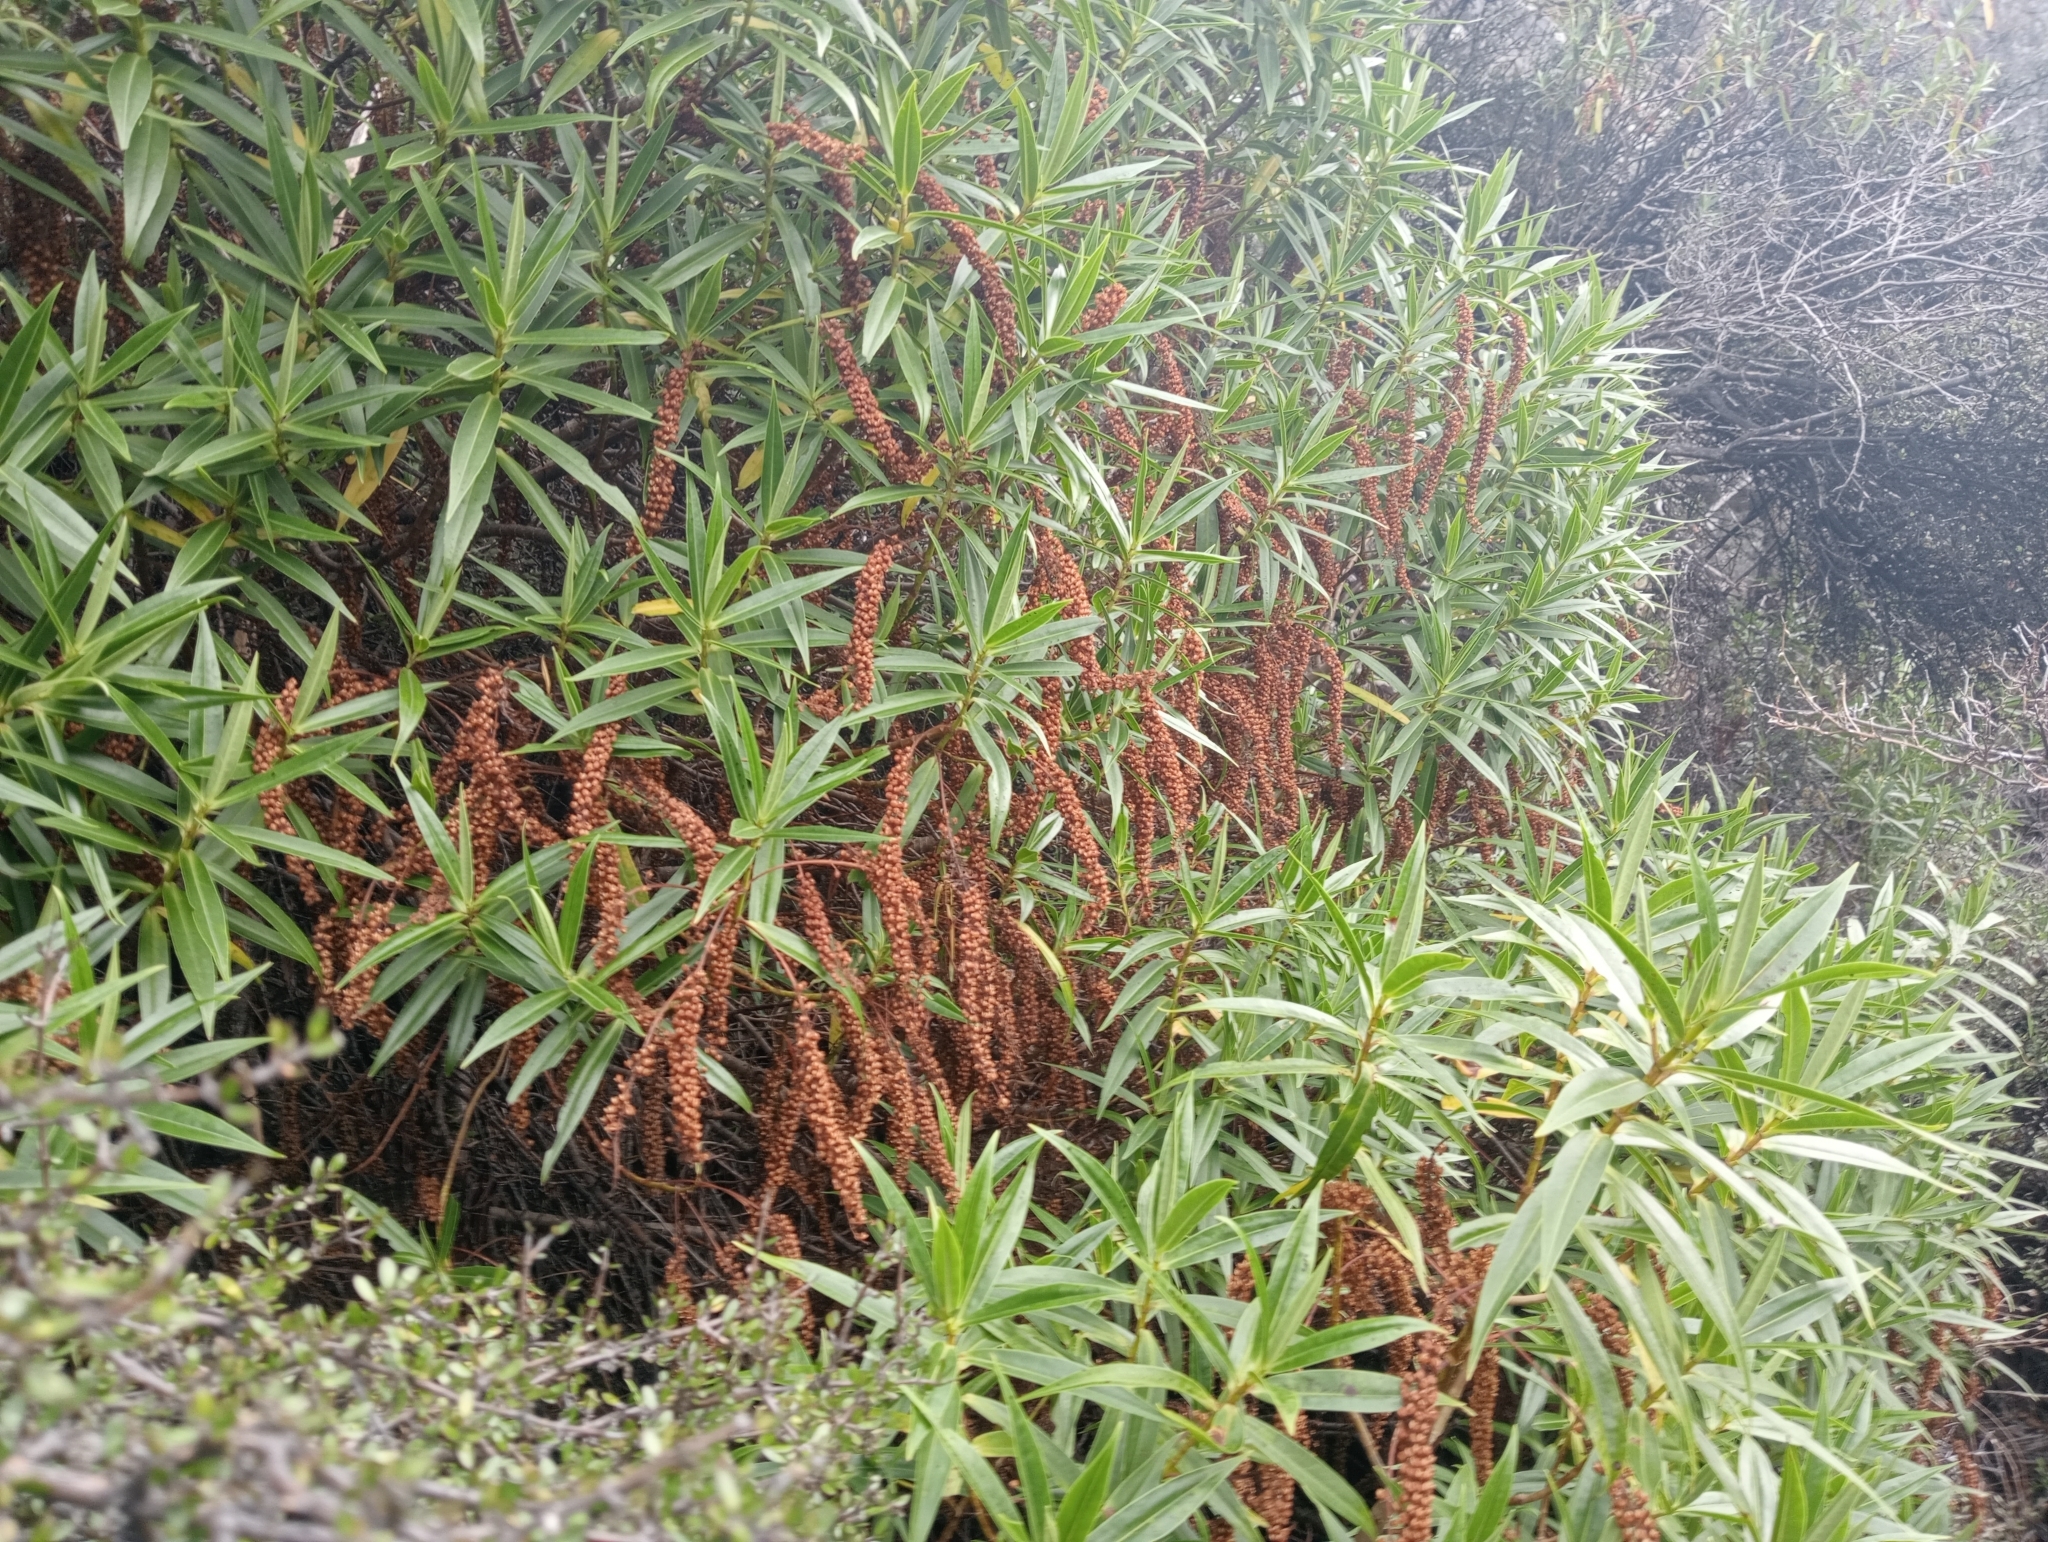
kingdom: Plantae
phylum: Tracheophyta
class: Magnoliopsida
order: Lamiales
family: Plantaginaceae
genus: Veronica
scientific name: Veronica salicifolia
